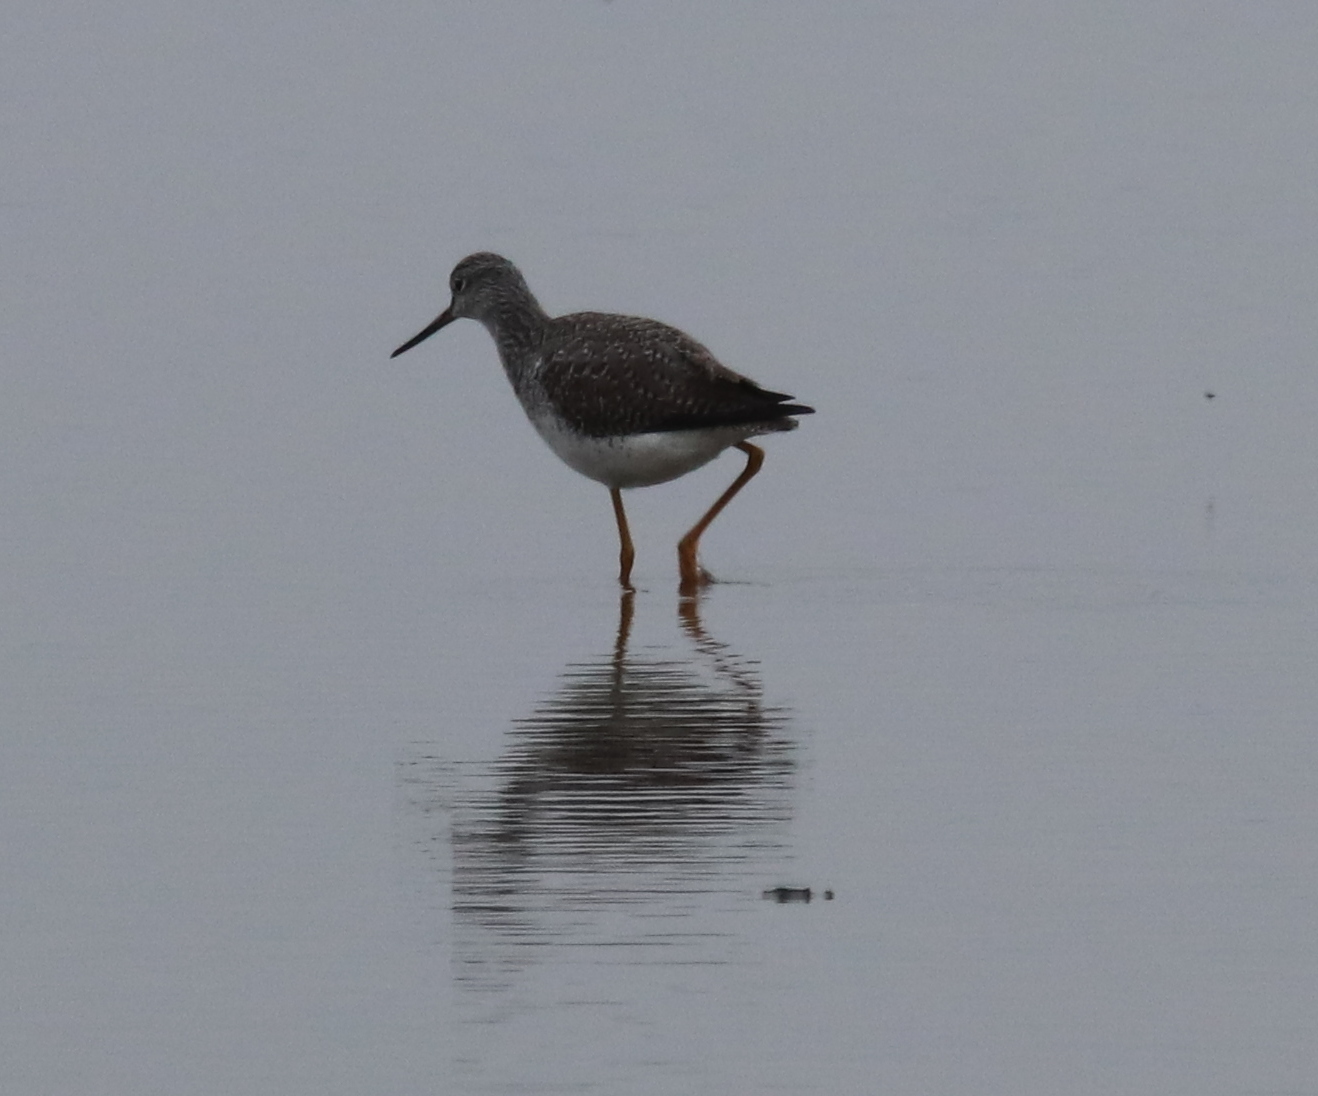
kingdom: Animalia
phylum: Chordata
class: Aves
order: Charadriiformes
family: Scolopacidae
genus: Tringa
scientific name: Tringa melanoleuca
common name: Greater yellowlegs
